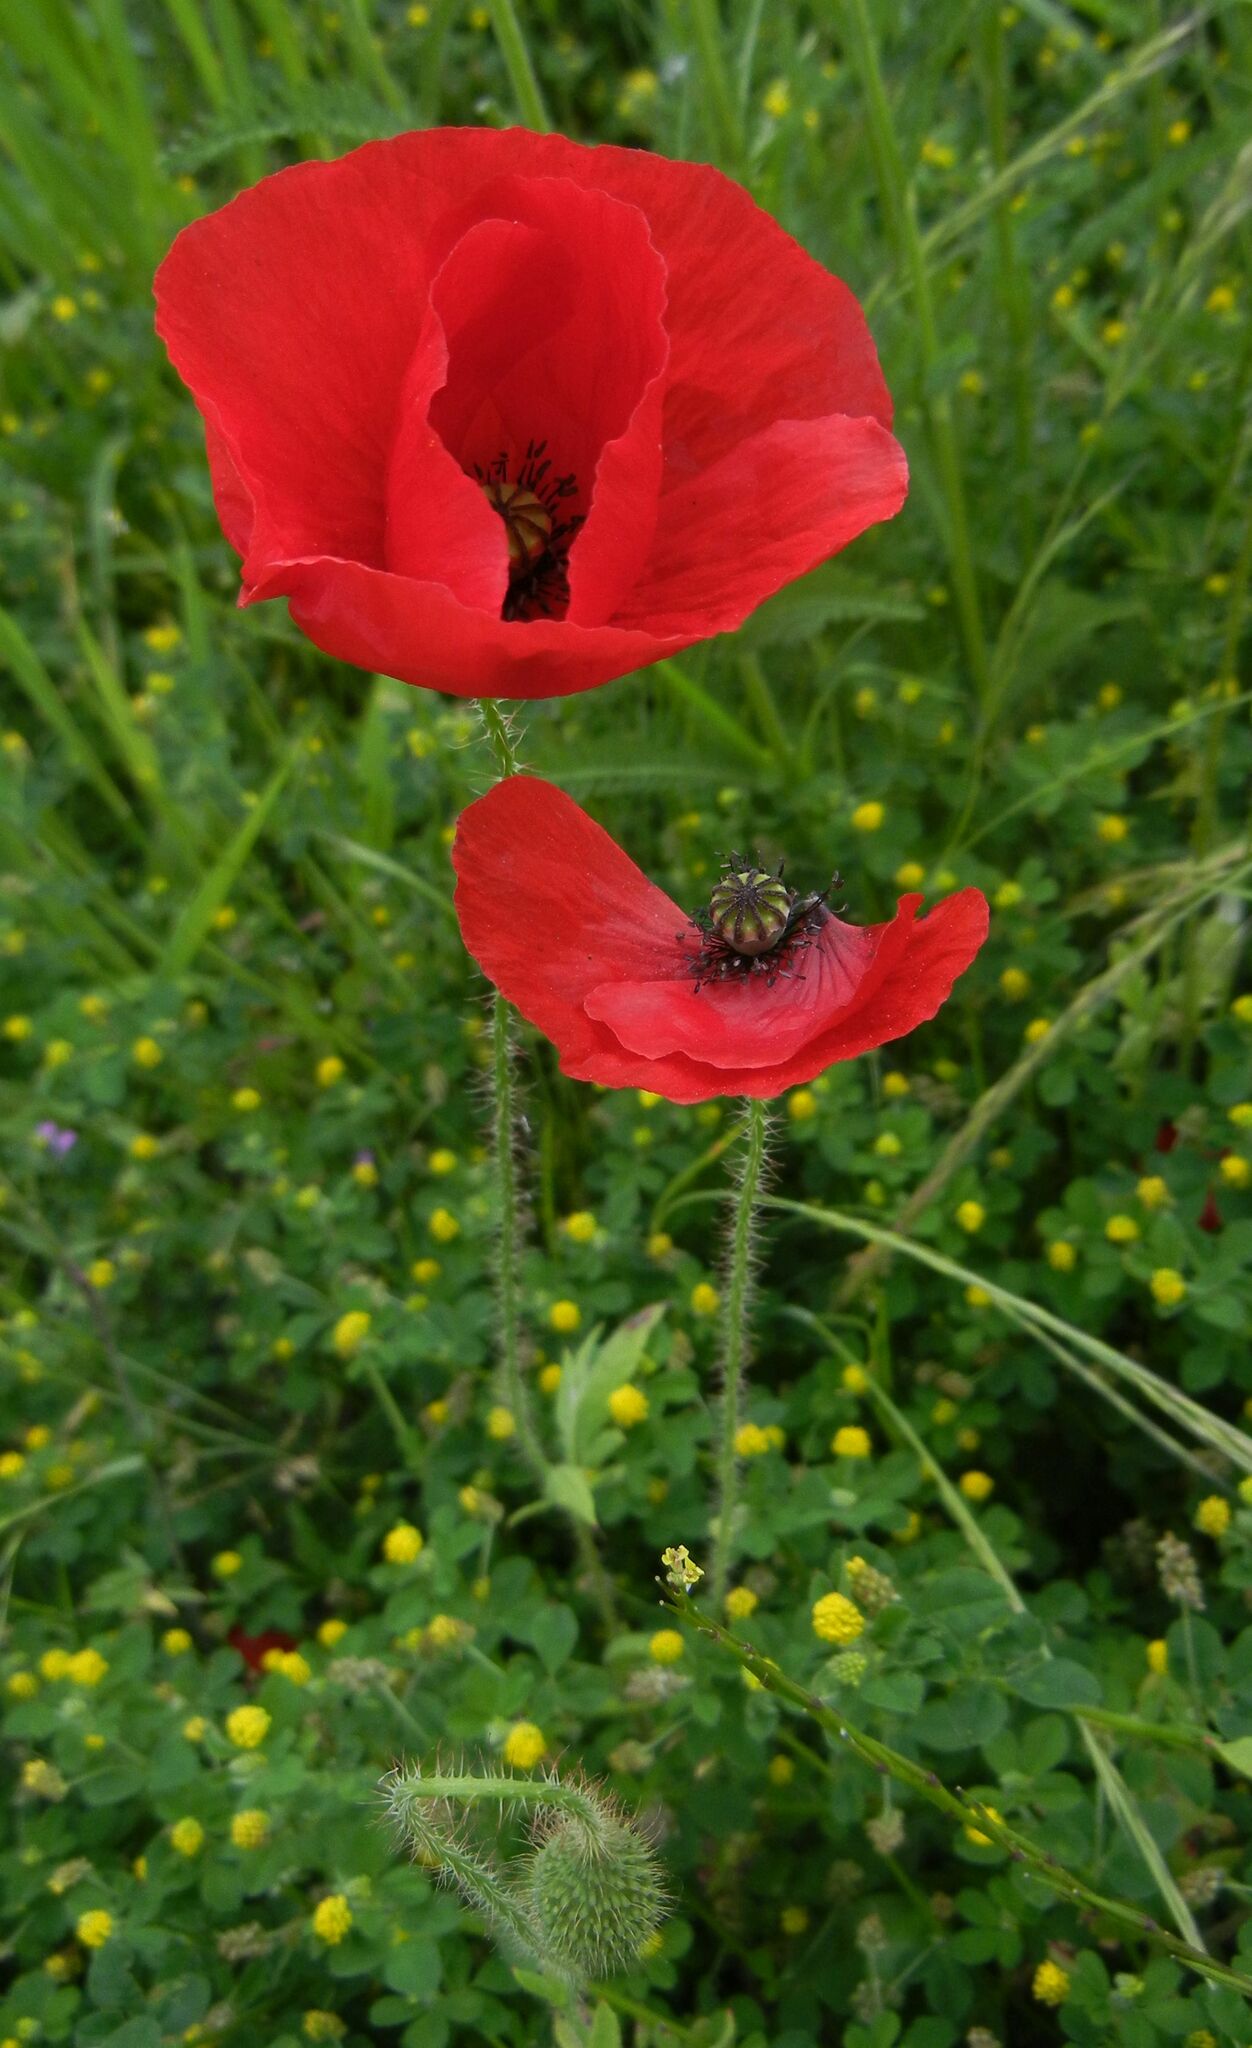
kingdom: Plantae
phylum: Tracheophyta
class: Magnoliopsida
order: Ranunculales
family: Papaveraceae
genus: Papaver
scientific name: Papaver rhoeas
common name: Corn poppy
